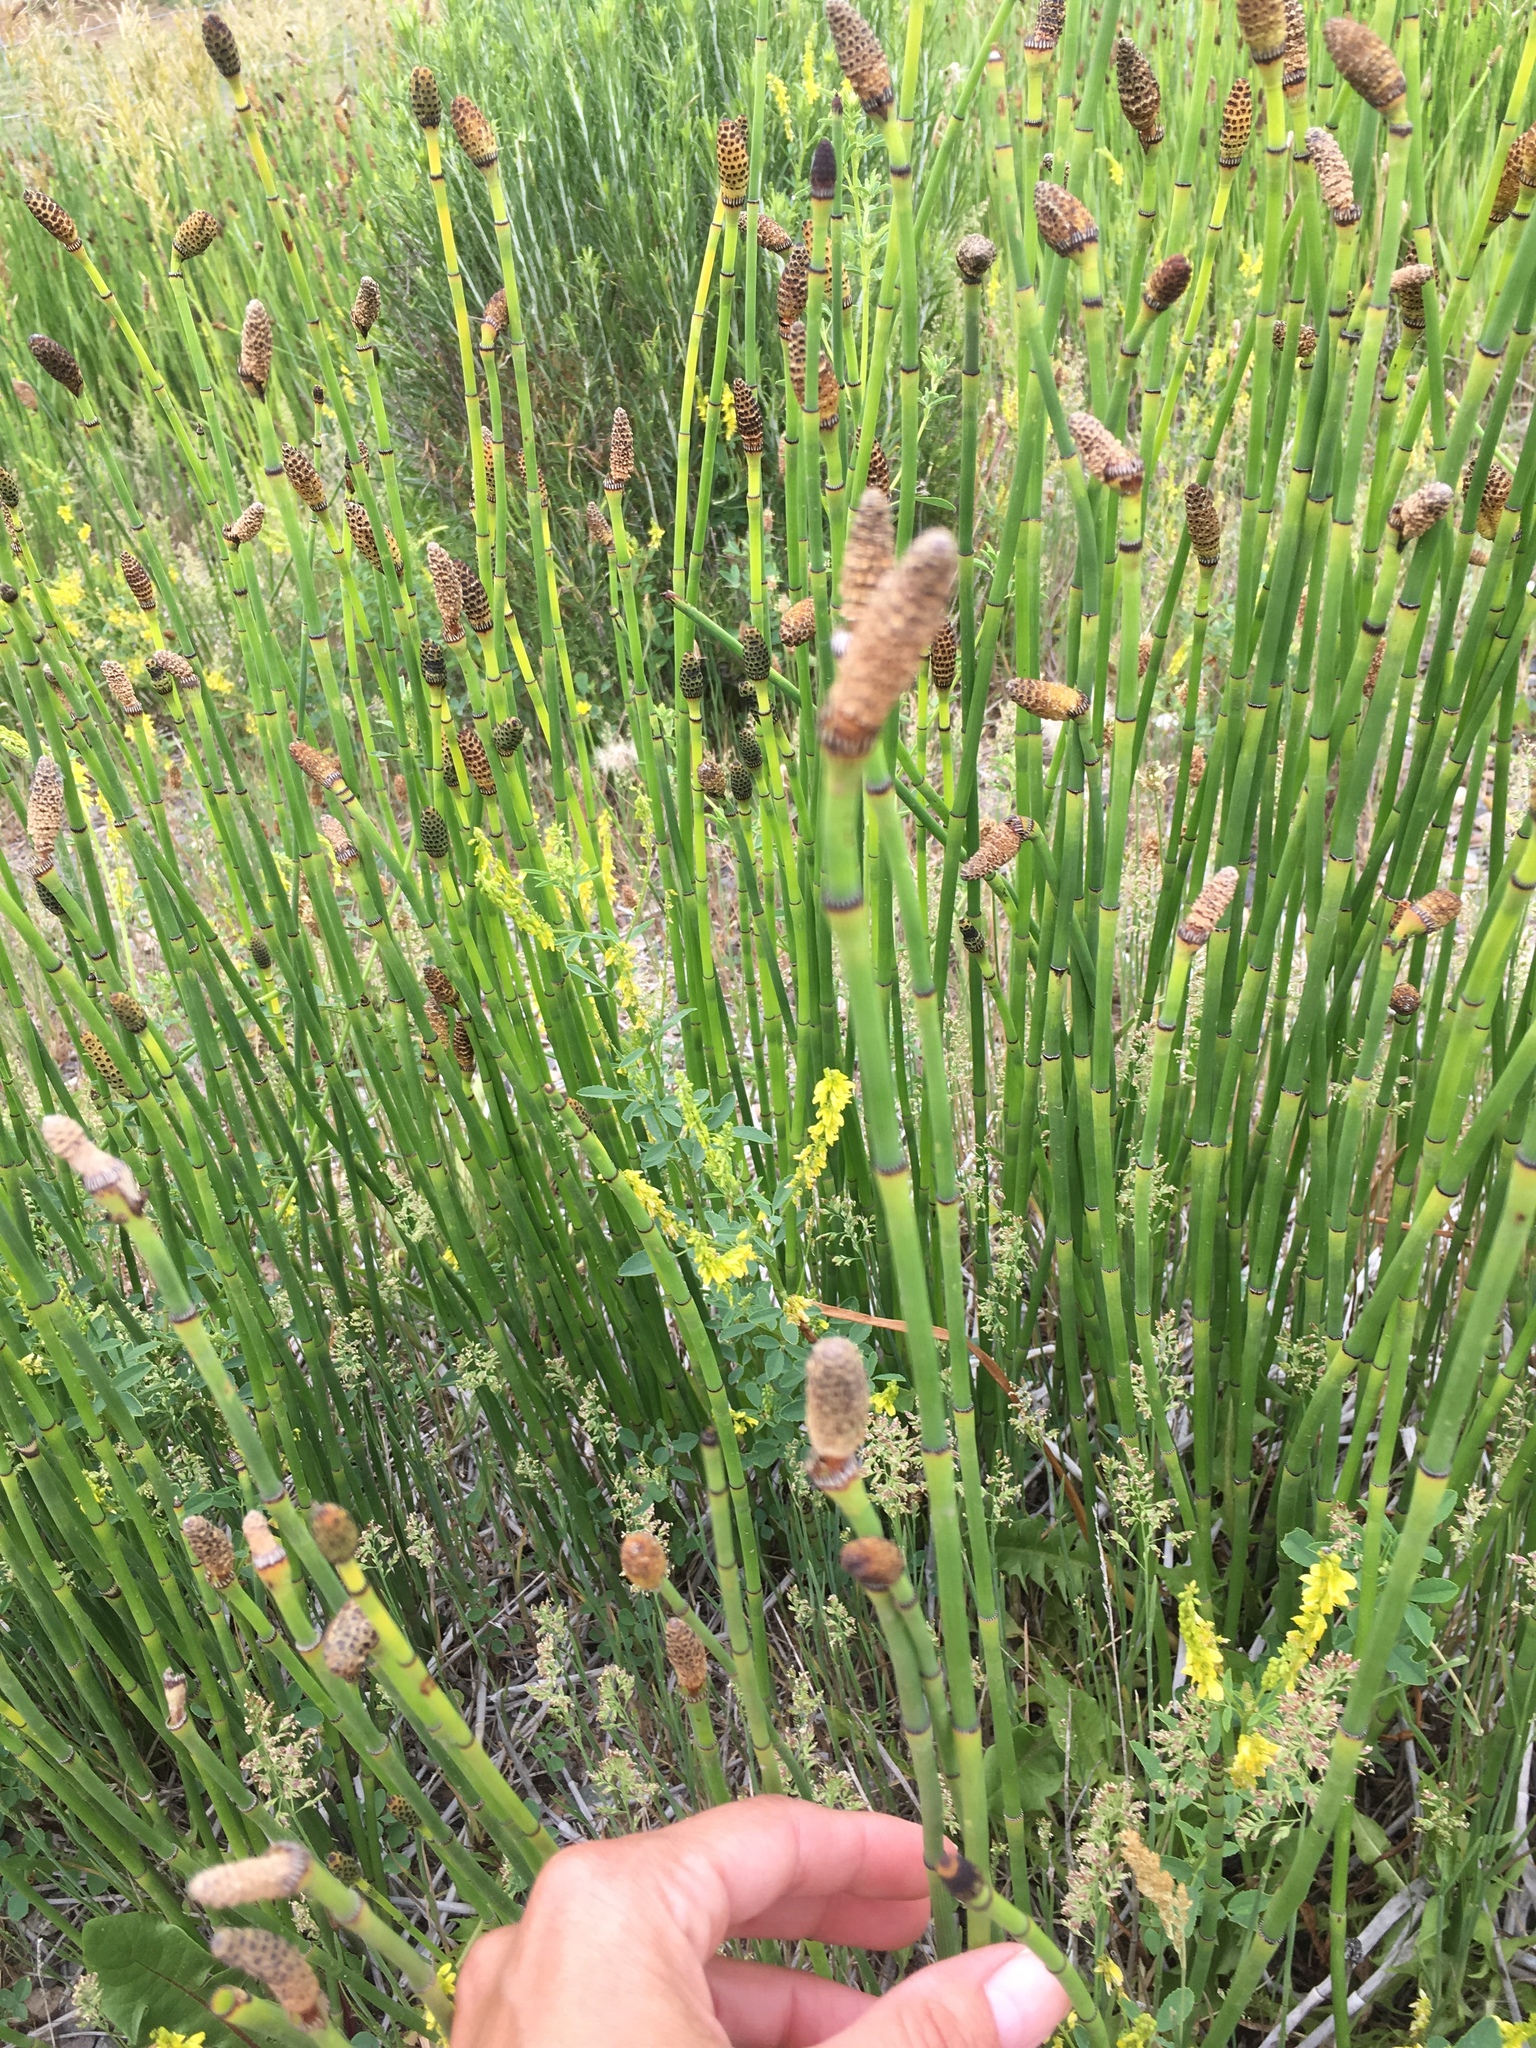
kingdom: Plantae
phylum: Tracheophyta
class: Polypodiopsida
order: Equisetales
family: Equisetaceae
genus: Equisetum
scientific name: Equisetum hyemale
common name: Rough horsetail
